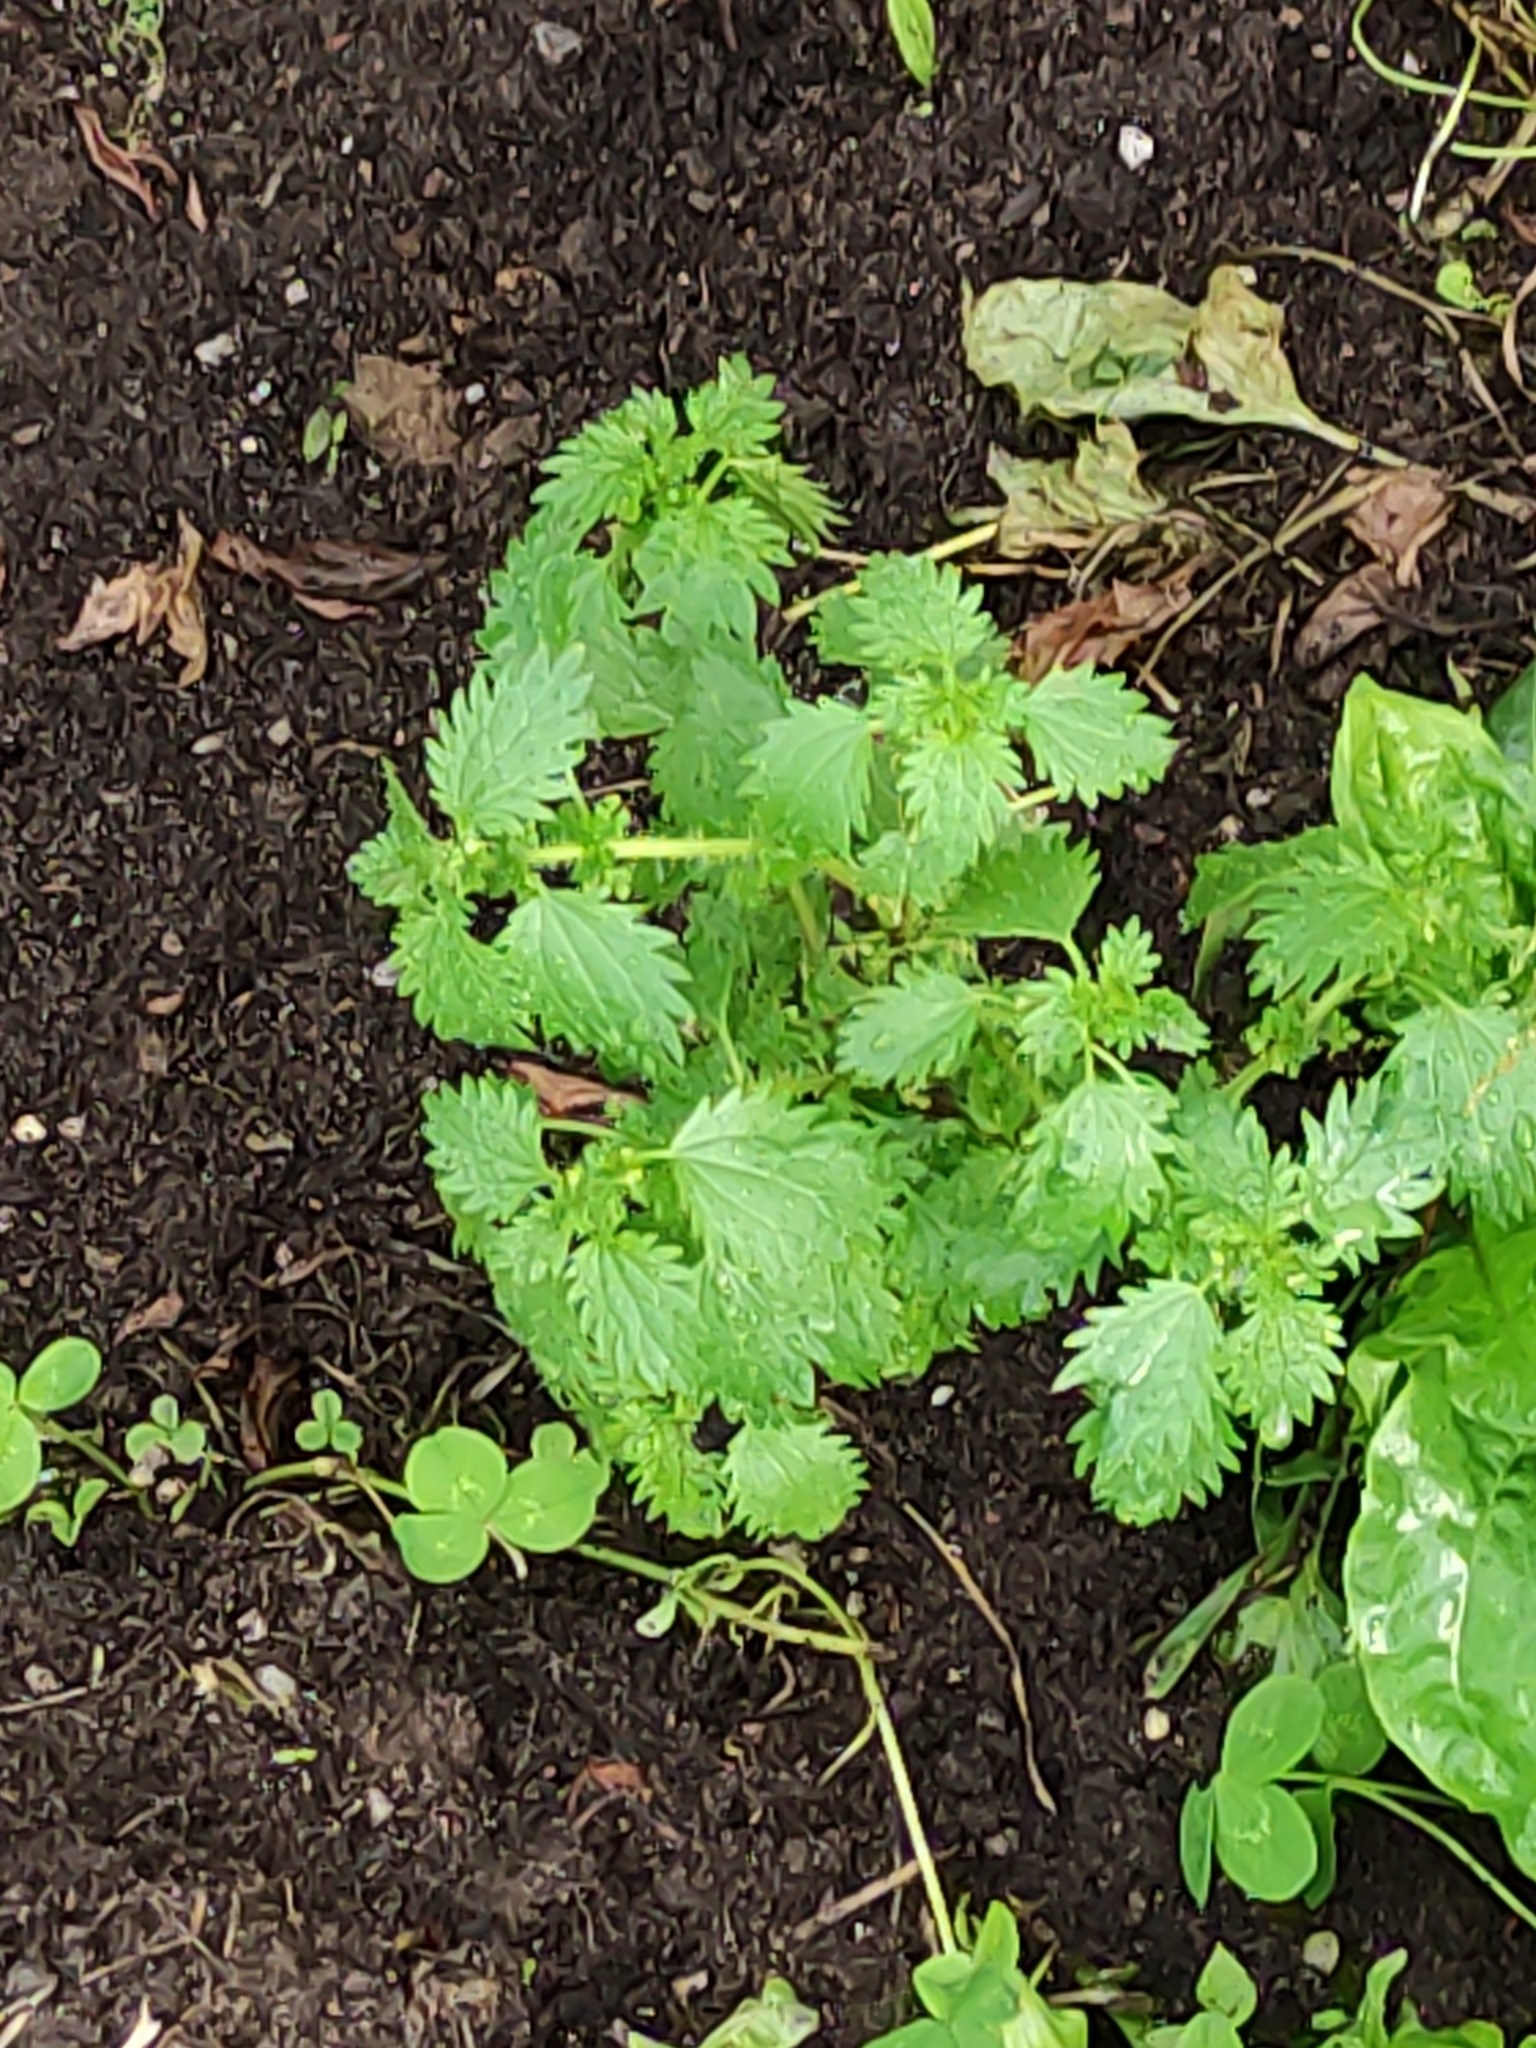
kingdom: Plantae
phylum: Tracheophyta
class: Magnoliopsida
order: Rosales
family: Urticaceae
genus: Urtica
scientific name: Urtica urens
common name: Dwarf nettle
